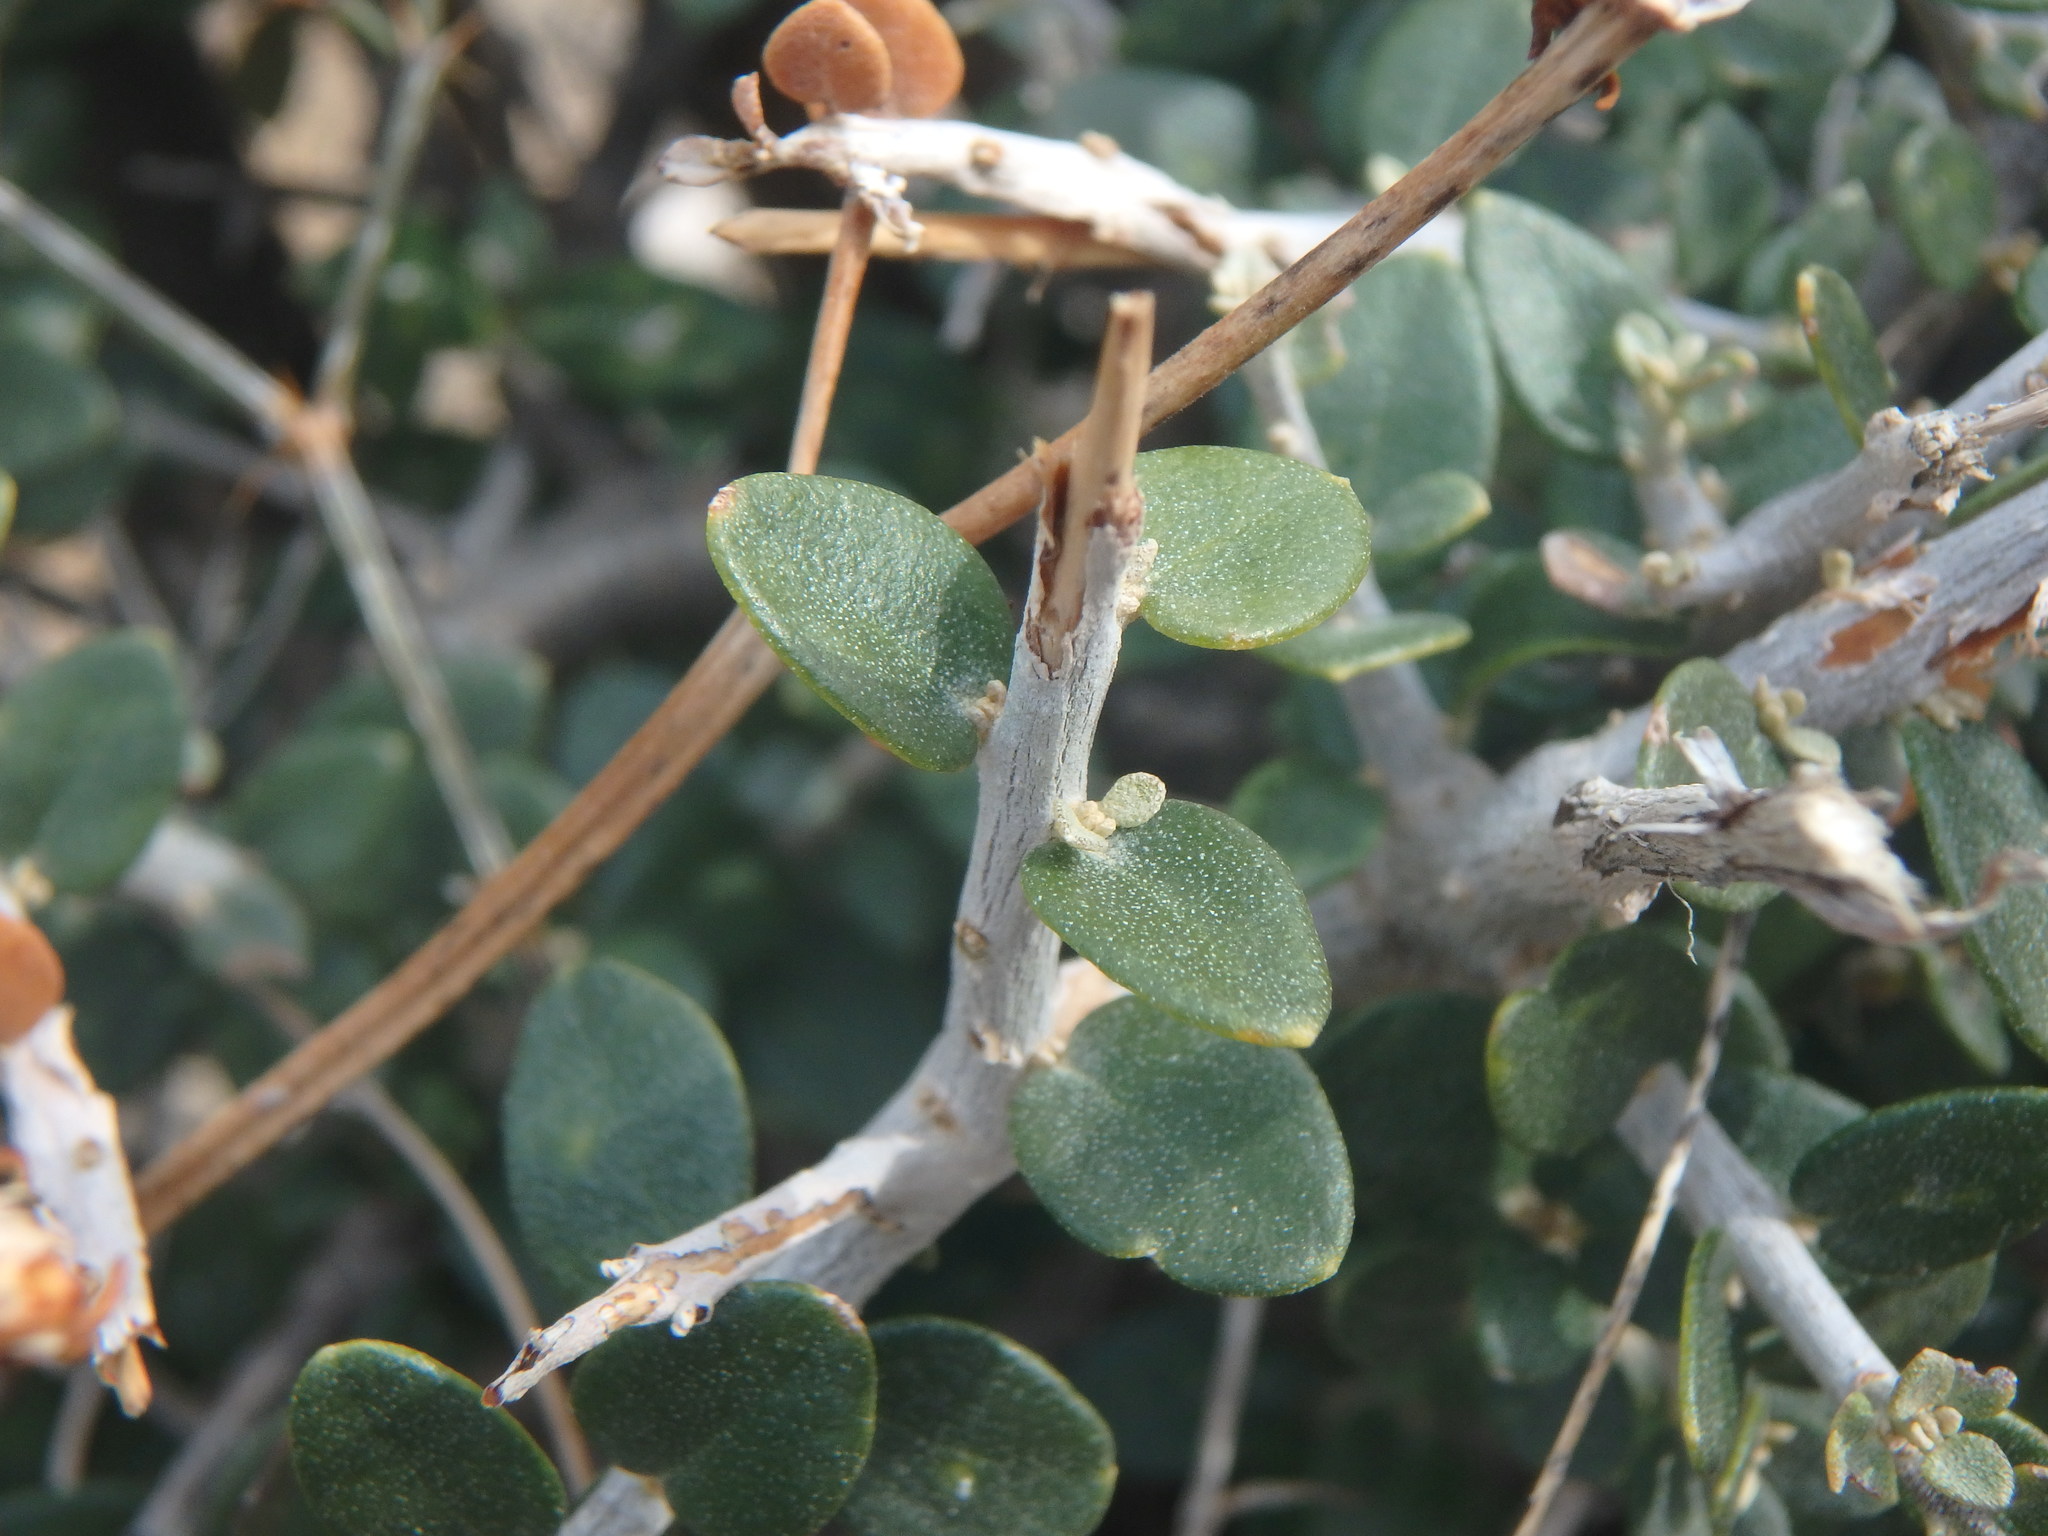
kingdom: Plantae
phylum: Tracheophyta
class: Magnoliopsida
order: Lamiales
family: Oleaceae
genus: Olea
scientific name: Olea europaea
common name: Olive
